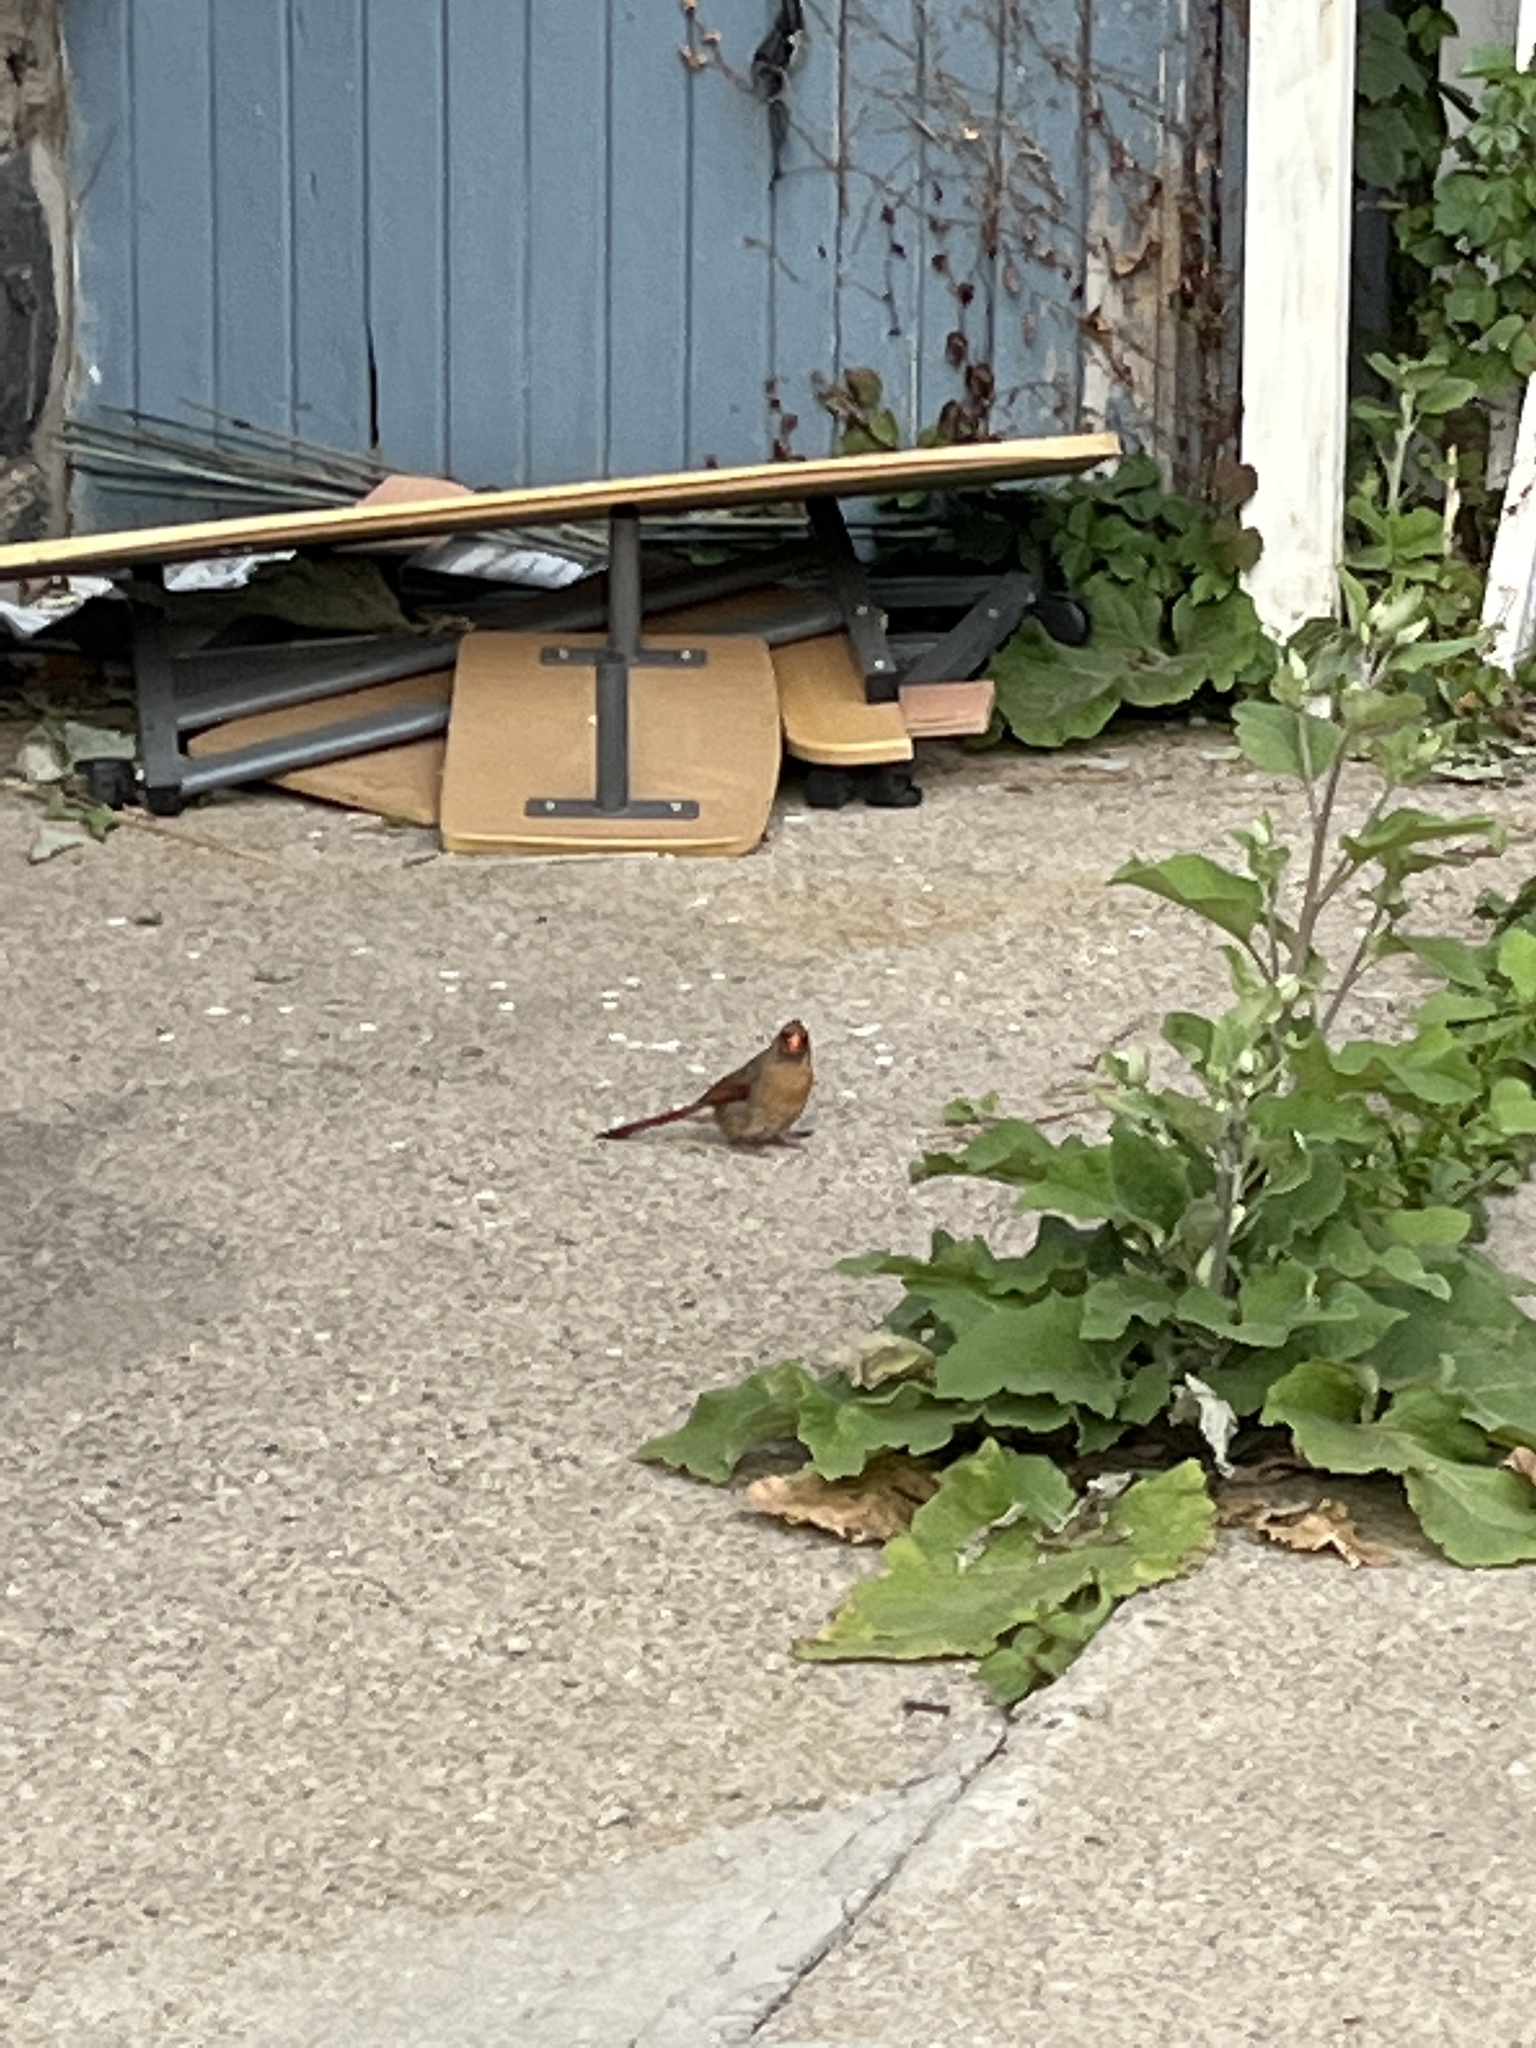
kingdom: Animalia
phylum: Chordata
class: Aves
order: Passeriformes
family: Cardinalidae
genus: Cardinalis
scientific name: Cardinalis cardinalis
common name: Northern cardinal
